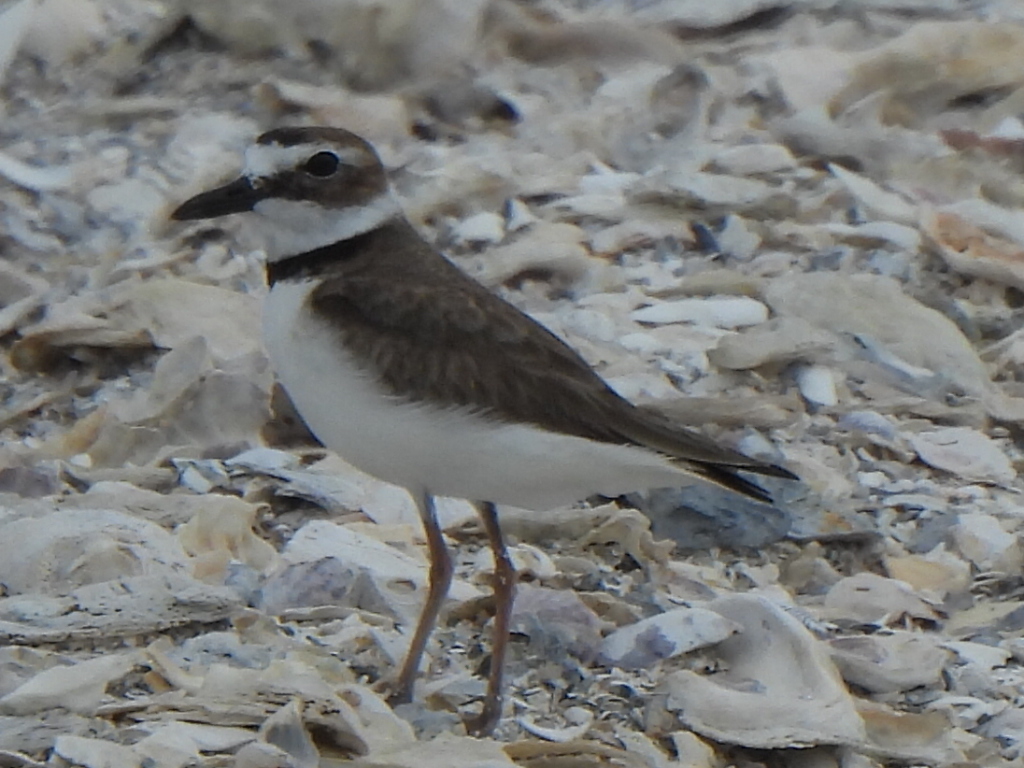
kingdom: Animalia
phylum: Chordata
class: Aves
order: Charadriiformes
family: Charadriidae
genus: Anarhynchus
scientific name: Anarhynchus
